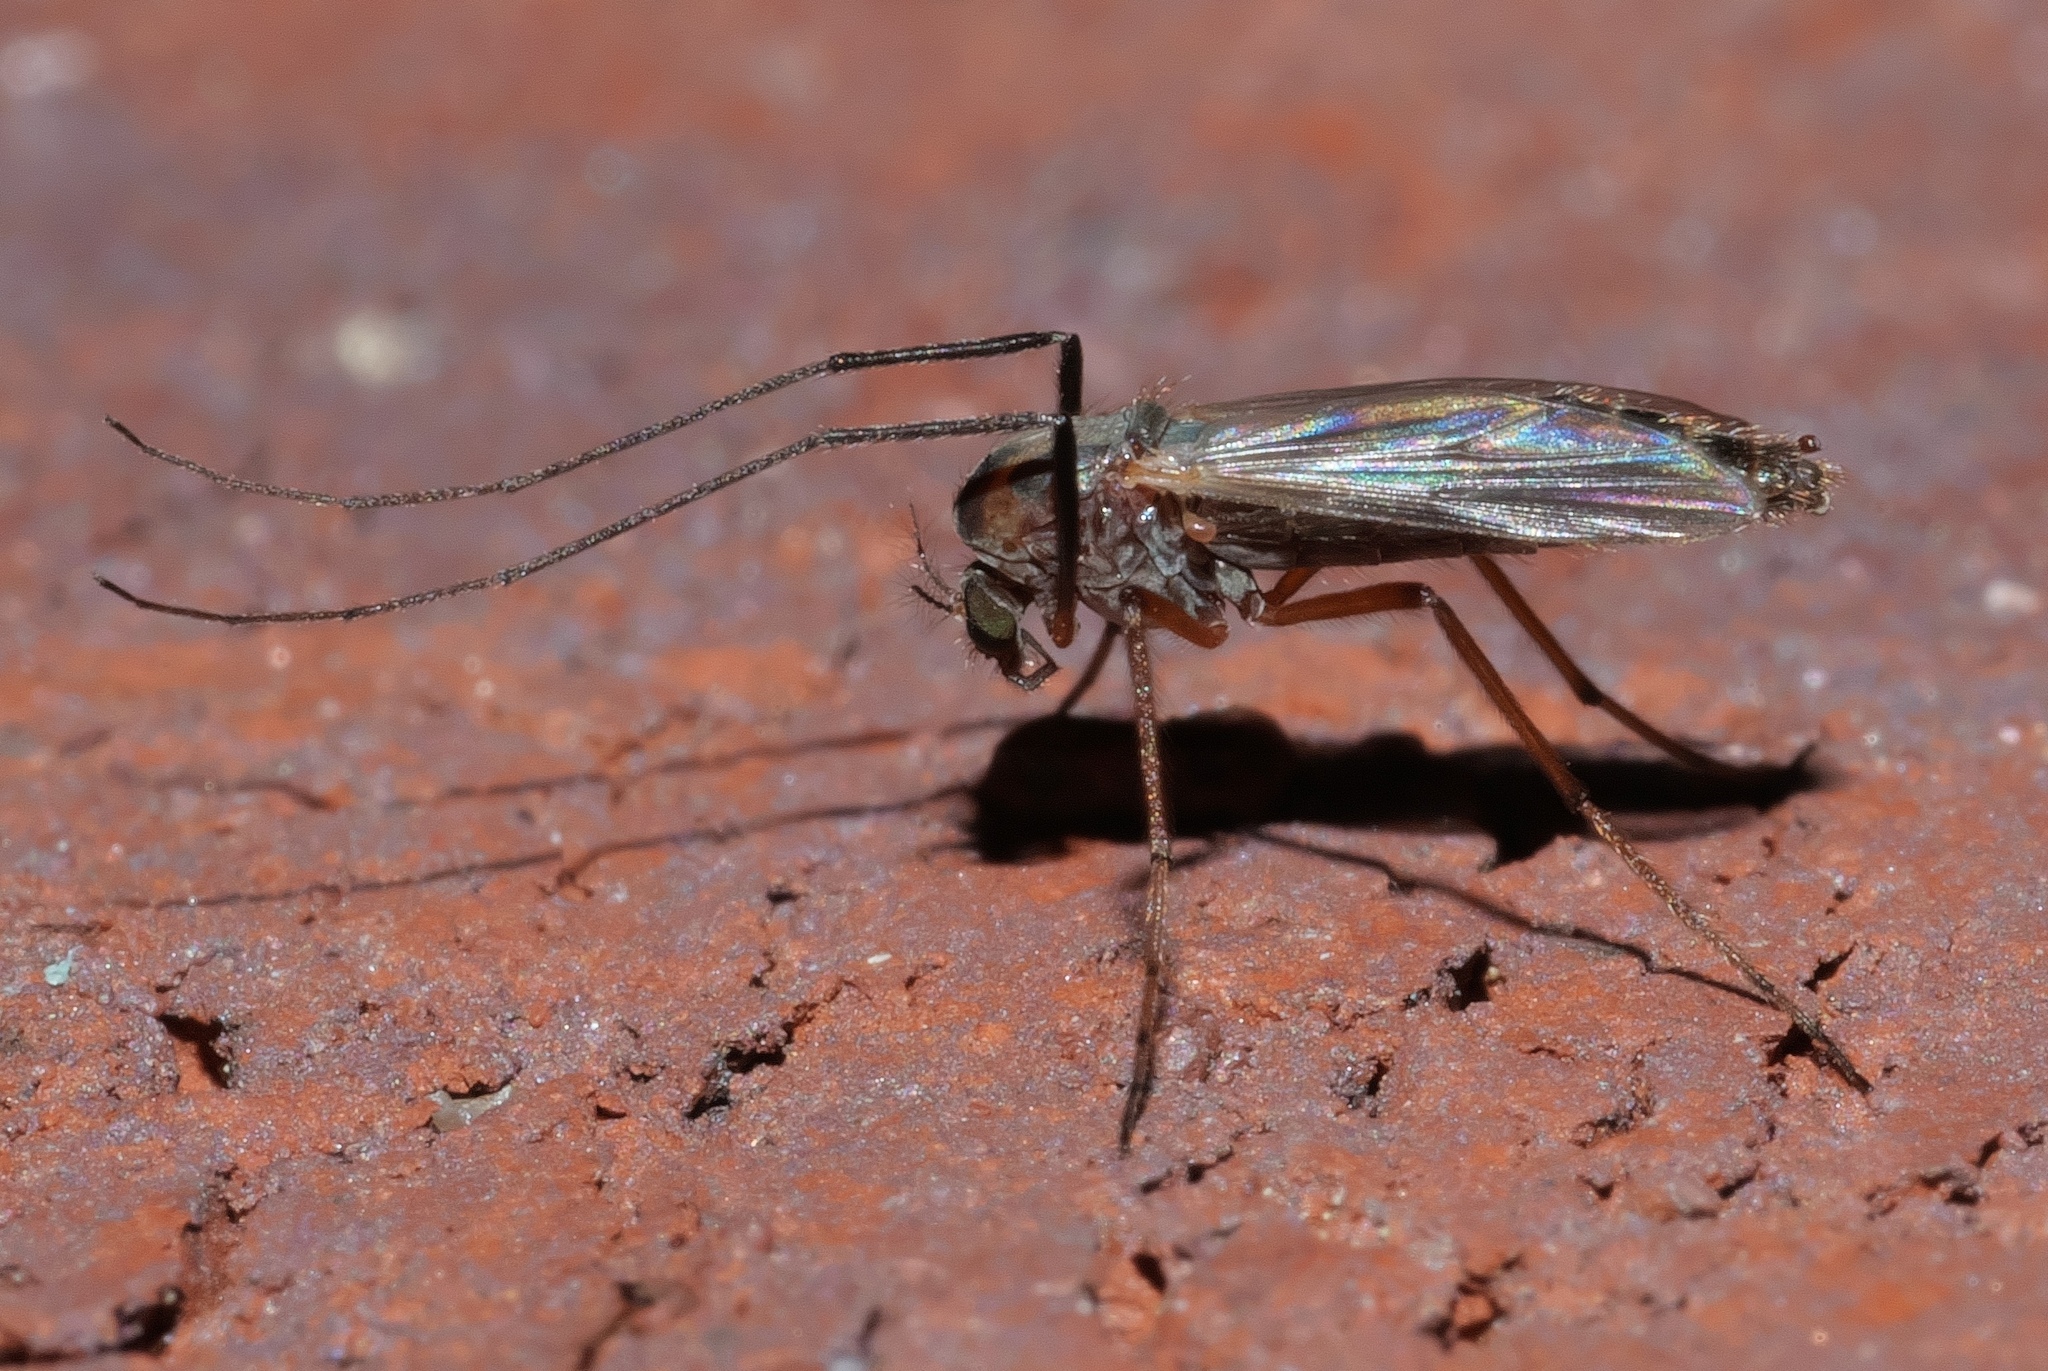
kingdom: Animalia
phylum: Arthropoda
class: Insecta
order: Diptera
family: Chironomidae
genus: Glyptotendipes
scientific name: Glyptotendipes testaceus
